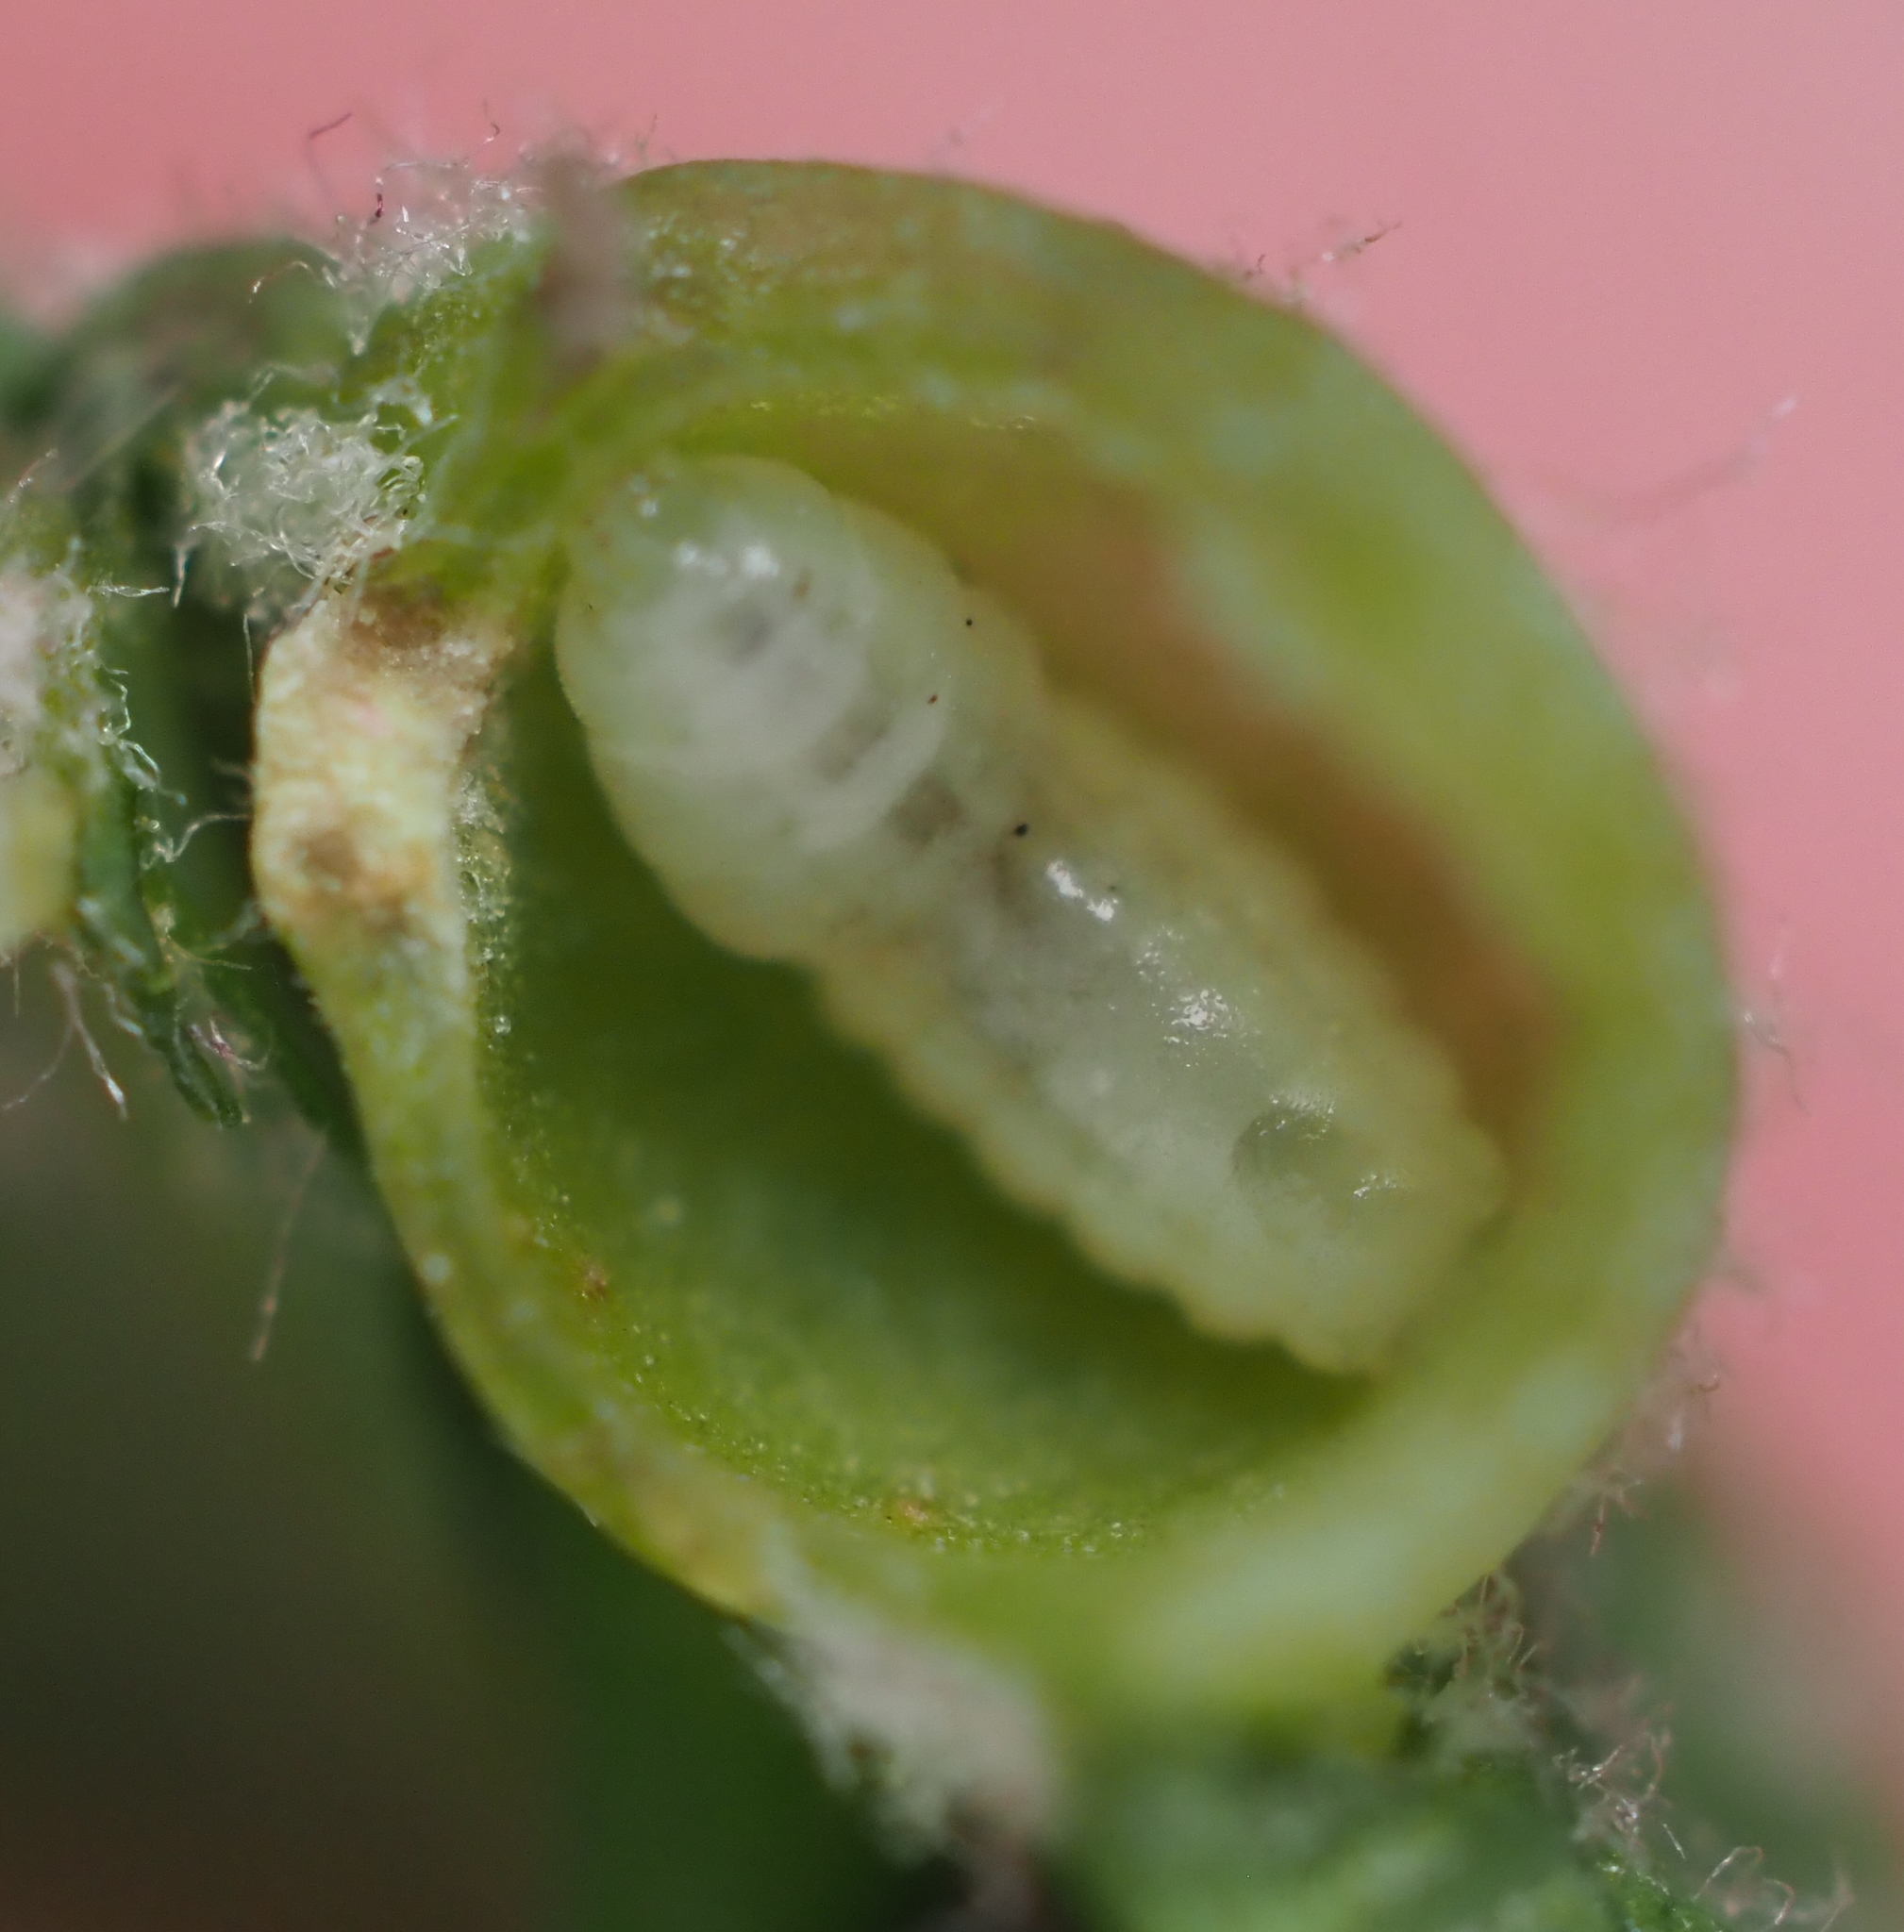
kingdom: Animalia
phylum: Arthropoda
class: Insecta
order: Hymenoptera
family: Cynipidae
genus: Andricus
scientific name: Andricus
